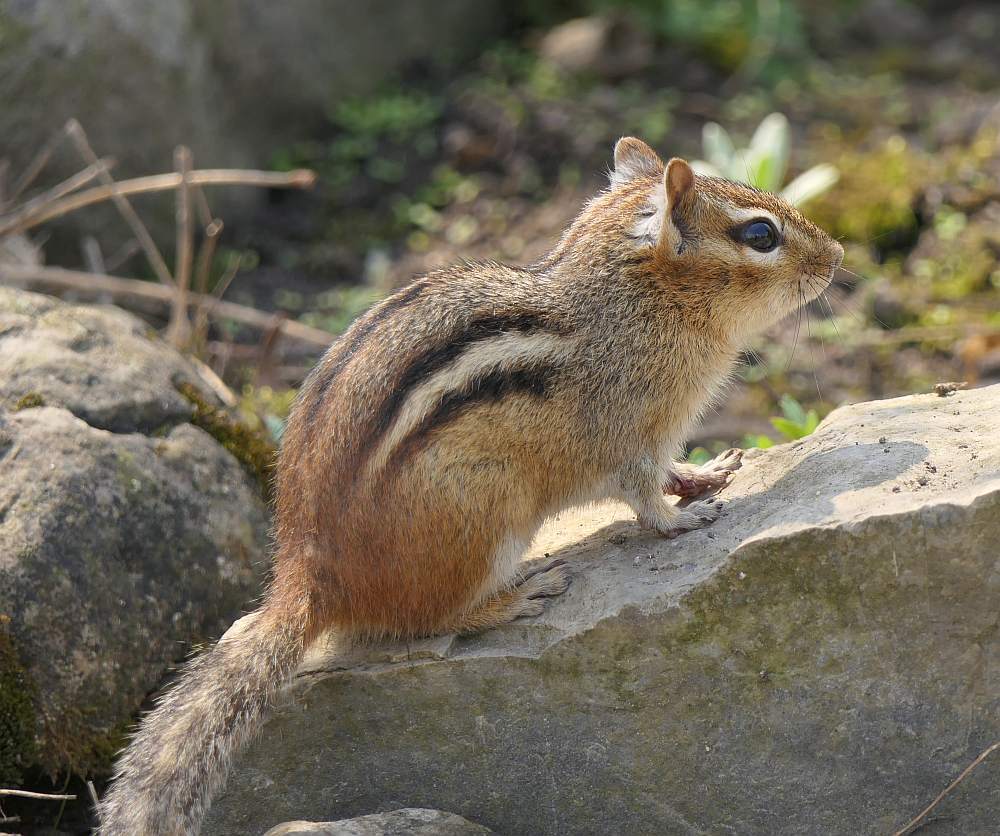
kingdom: Animalia
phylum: Chordata
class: Mammalia
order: Rodentia
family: Sciuridae
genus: Tamias
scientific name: Tamias striatus
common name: Eastern chipmunk
